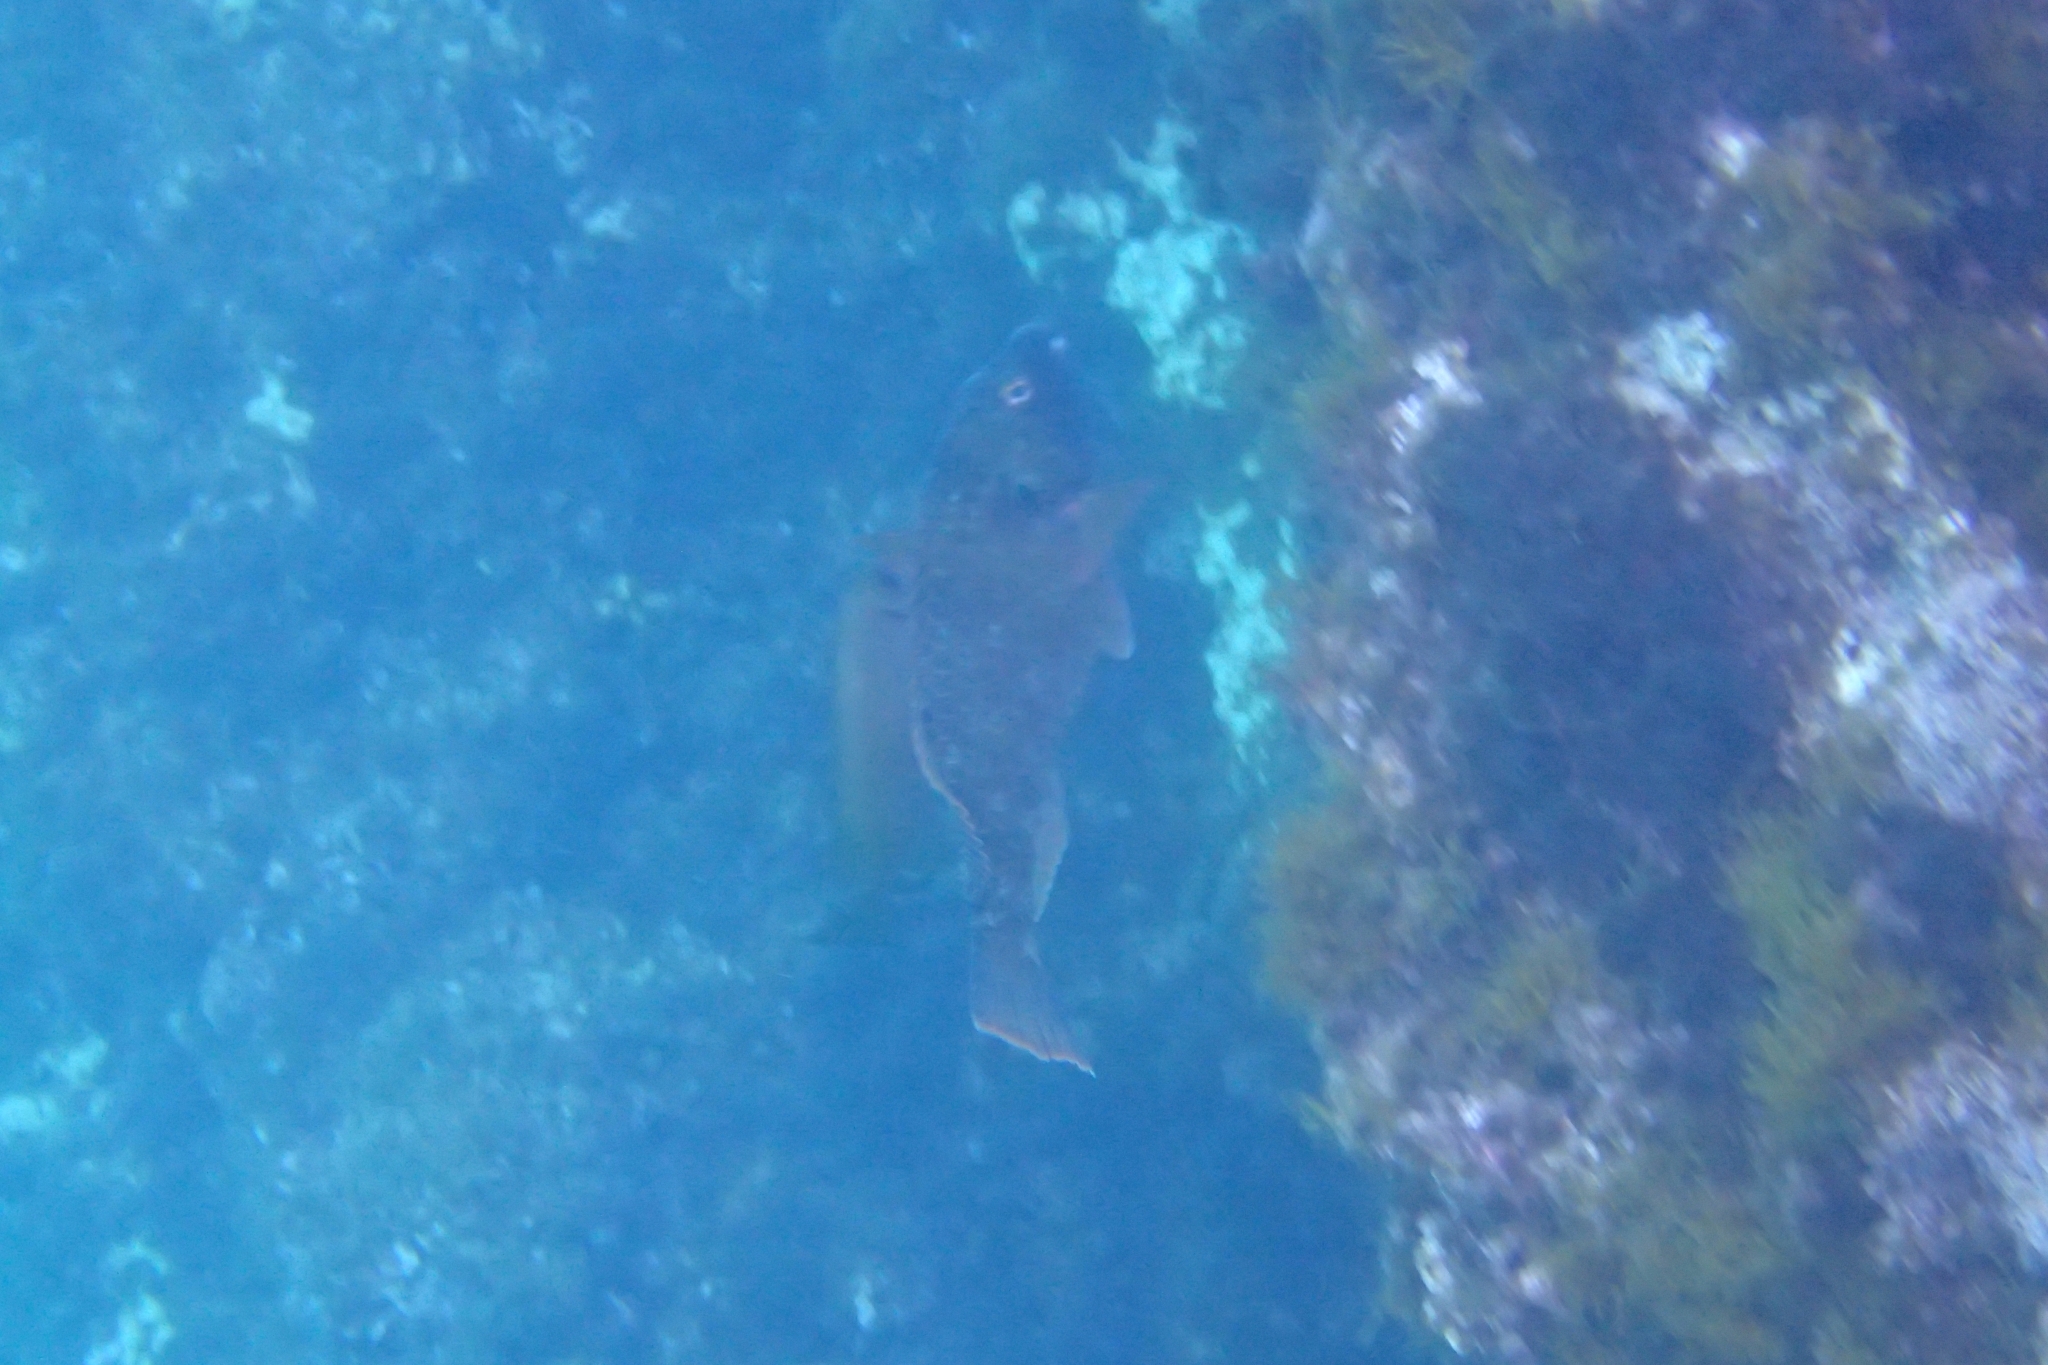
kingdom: Animalia
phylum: Chordata
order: Perciformes
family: Scaridae
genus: Sparisoma
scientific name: Sparisoma cretense
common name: Parrotfish
